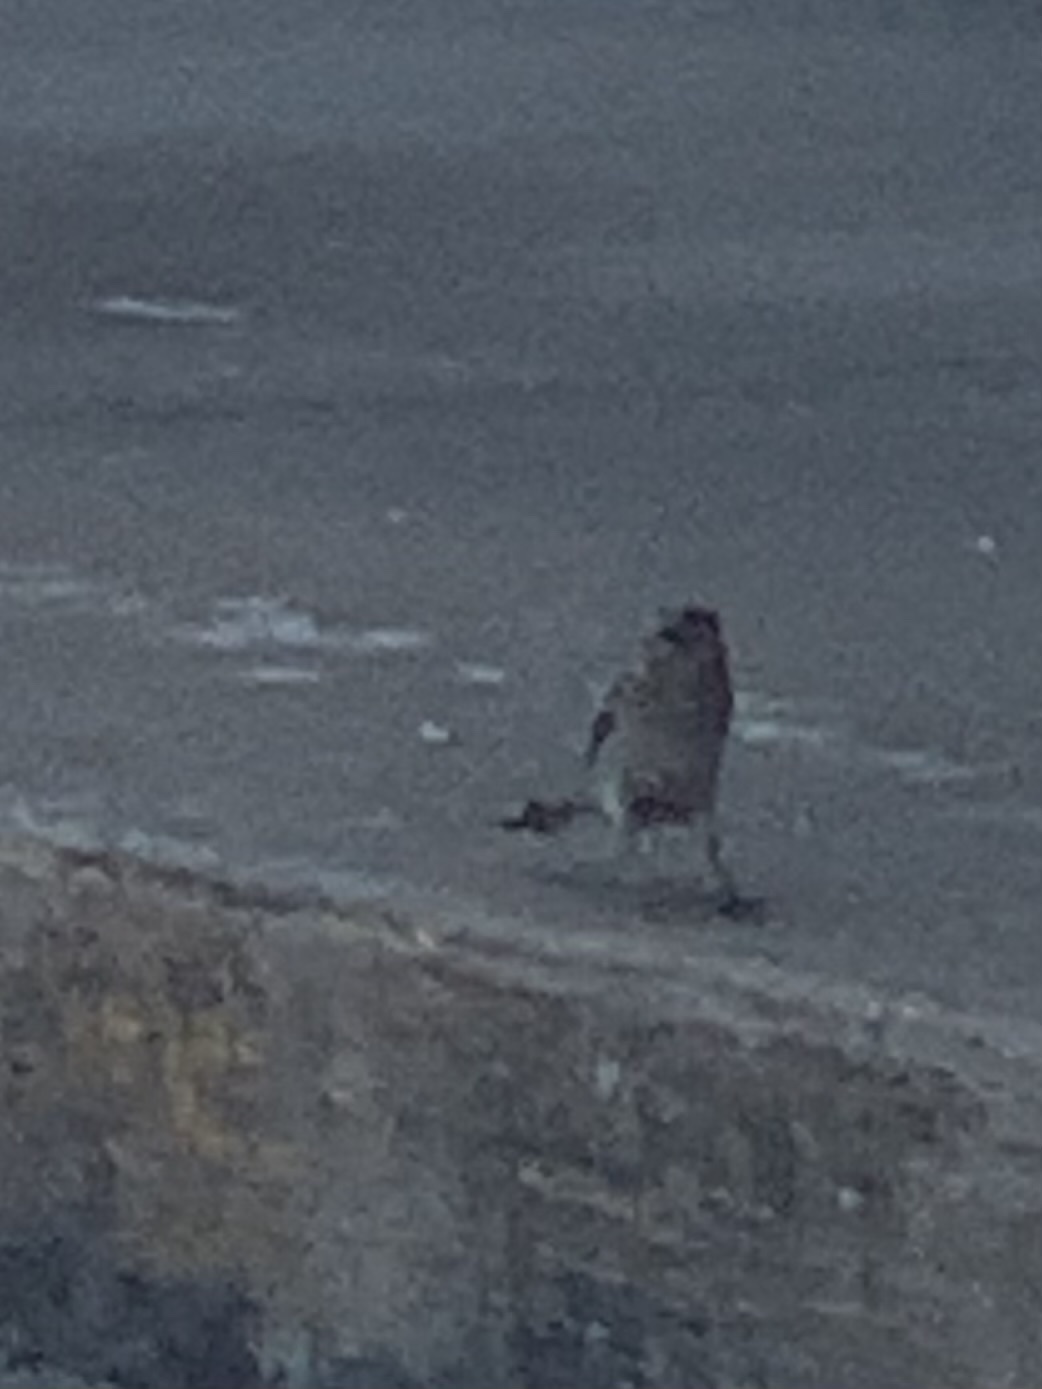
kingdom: Animalia
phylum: Chordata
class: Aves
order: Passeriformes
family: Passeridae
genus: Passer
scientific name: Passer domesticus
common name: House sparrow
